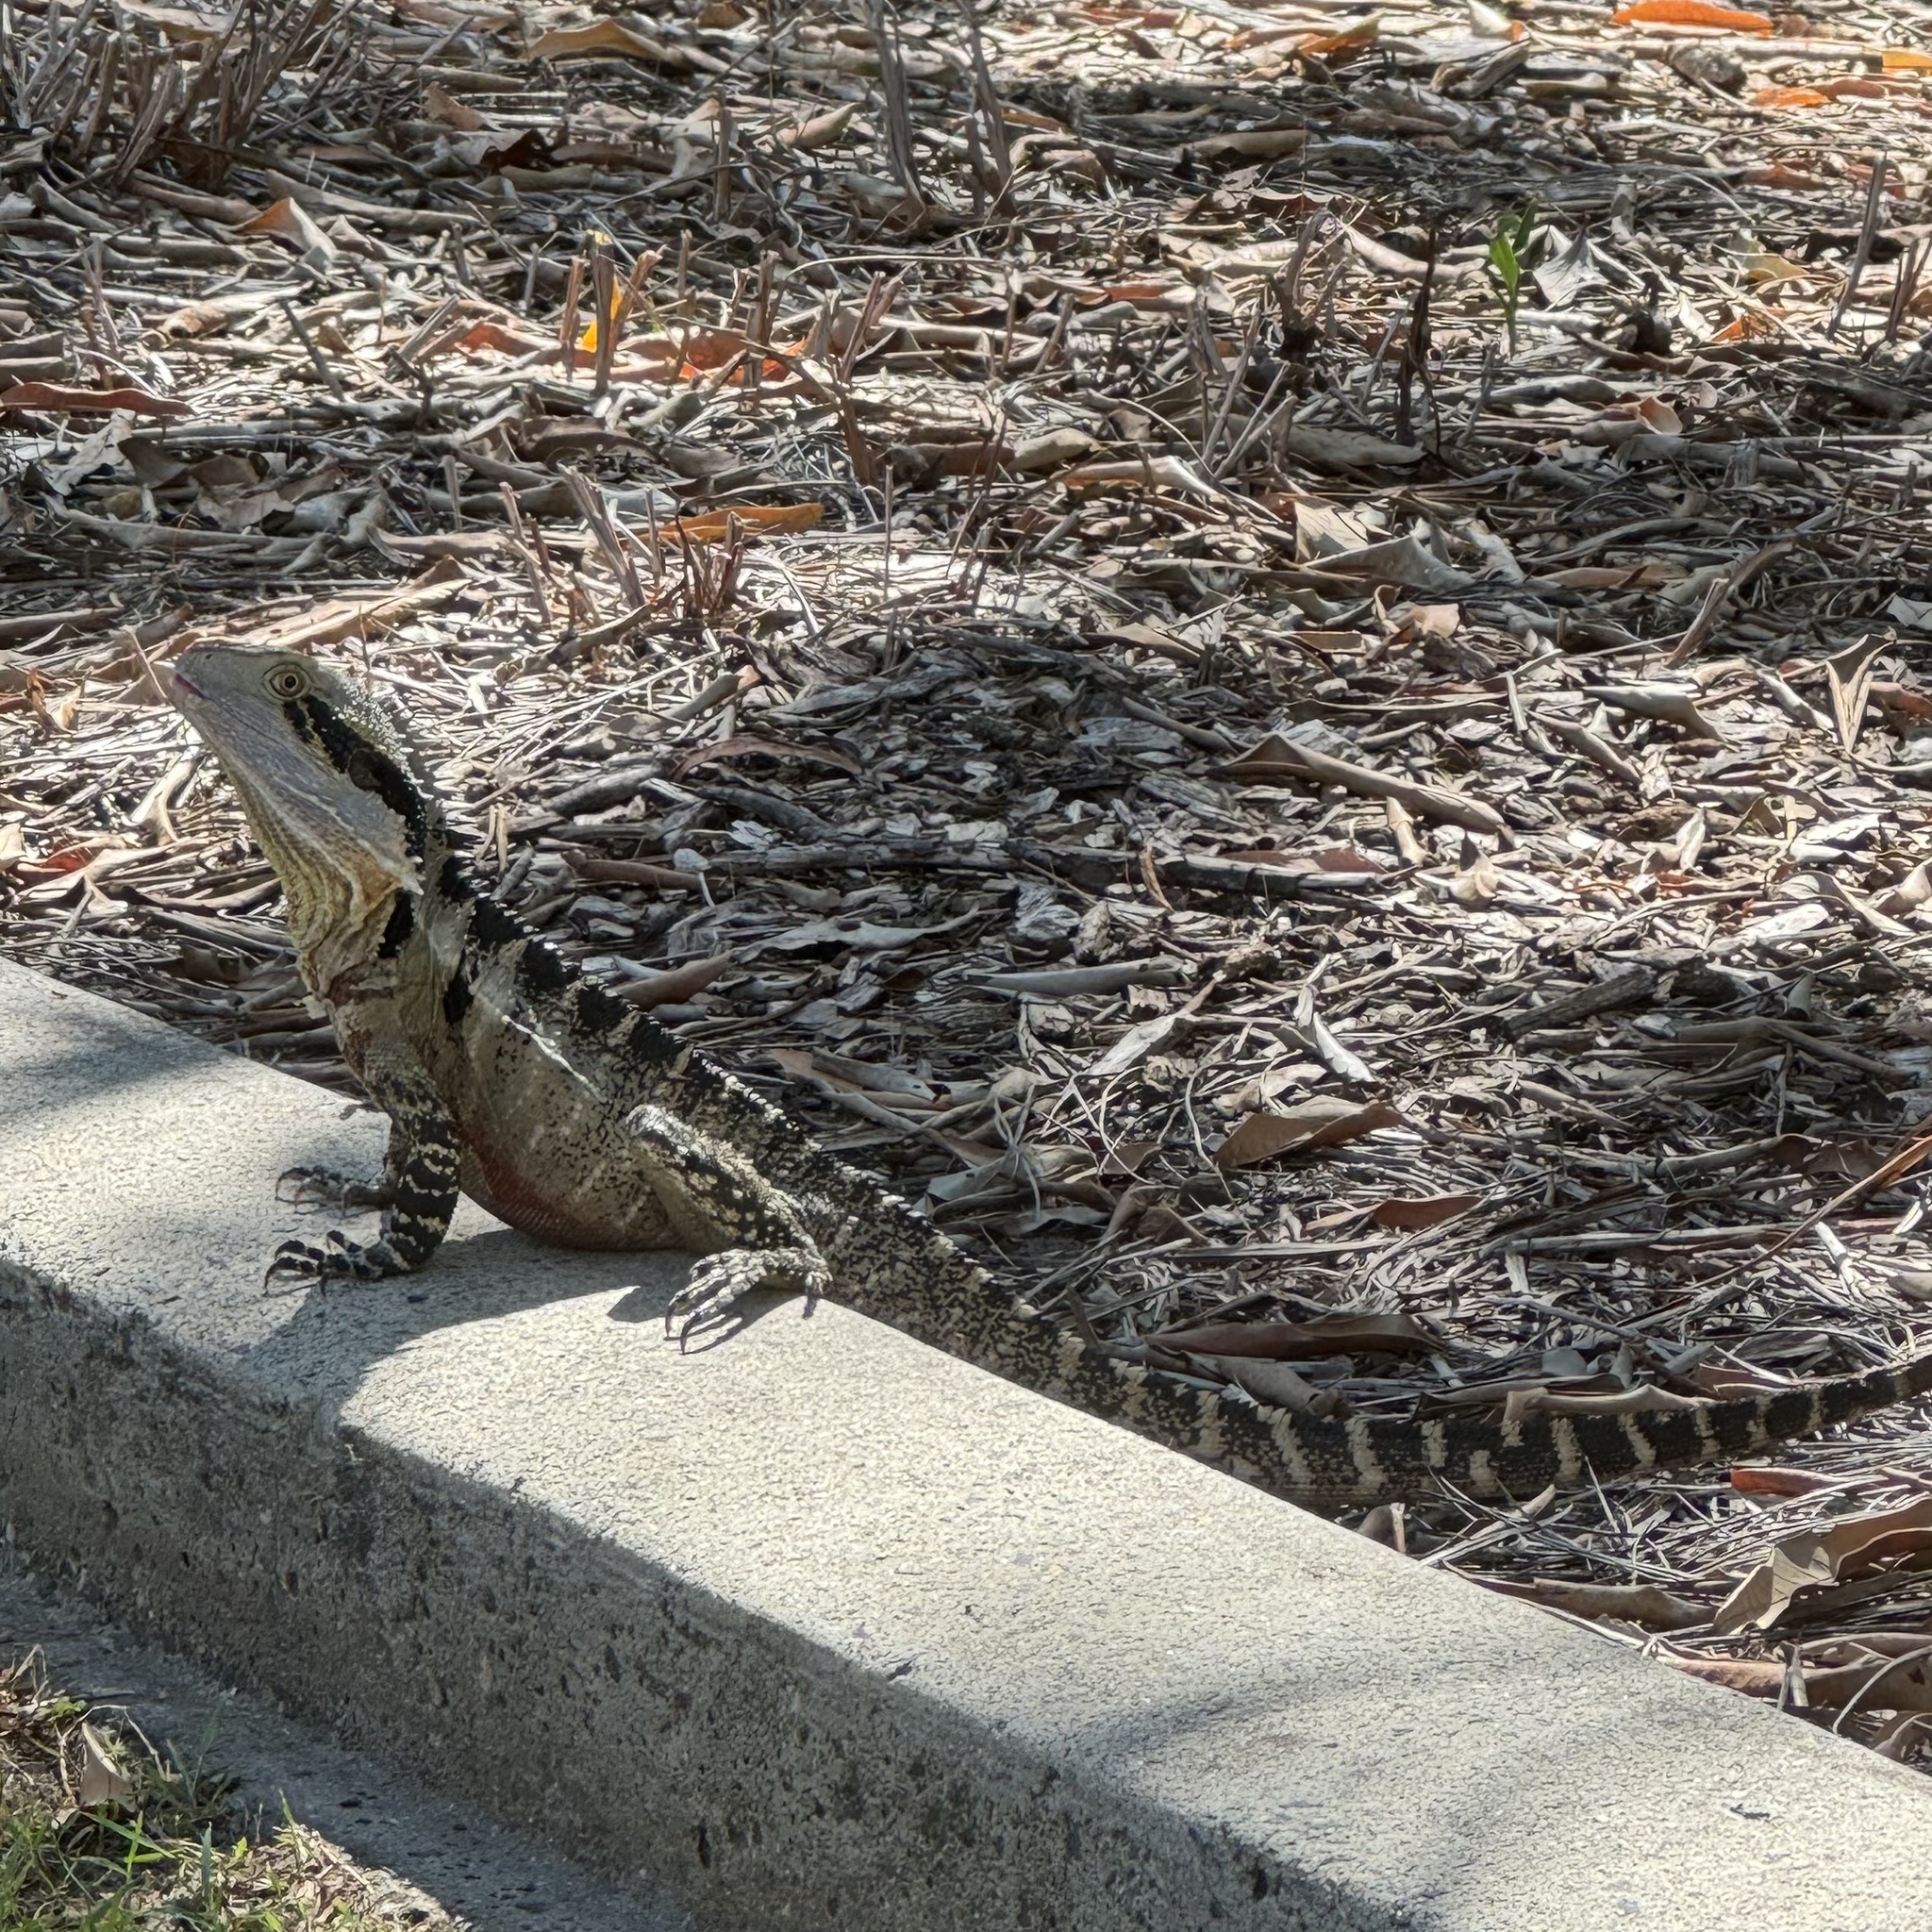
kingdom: Animalia
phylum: Chordata
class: Squamata
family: Agamidae
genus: Intellagama
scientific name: Intellagama lesueurii
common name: Eastern water dragon
